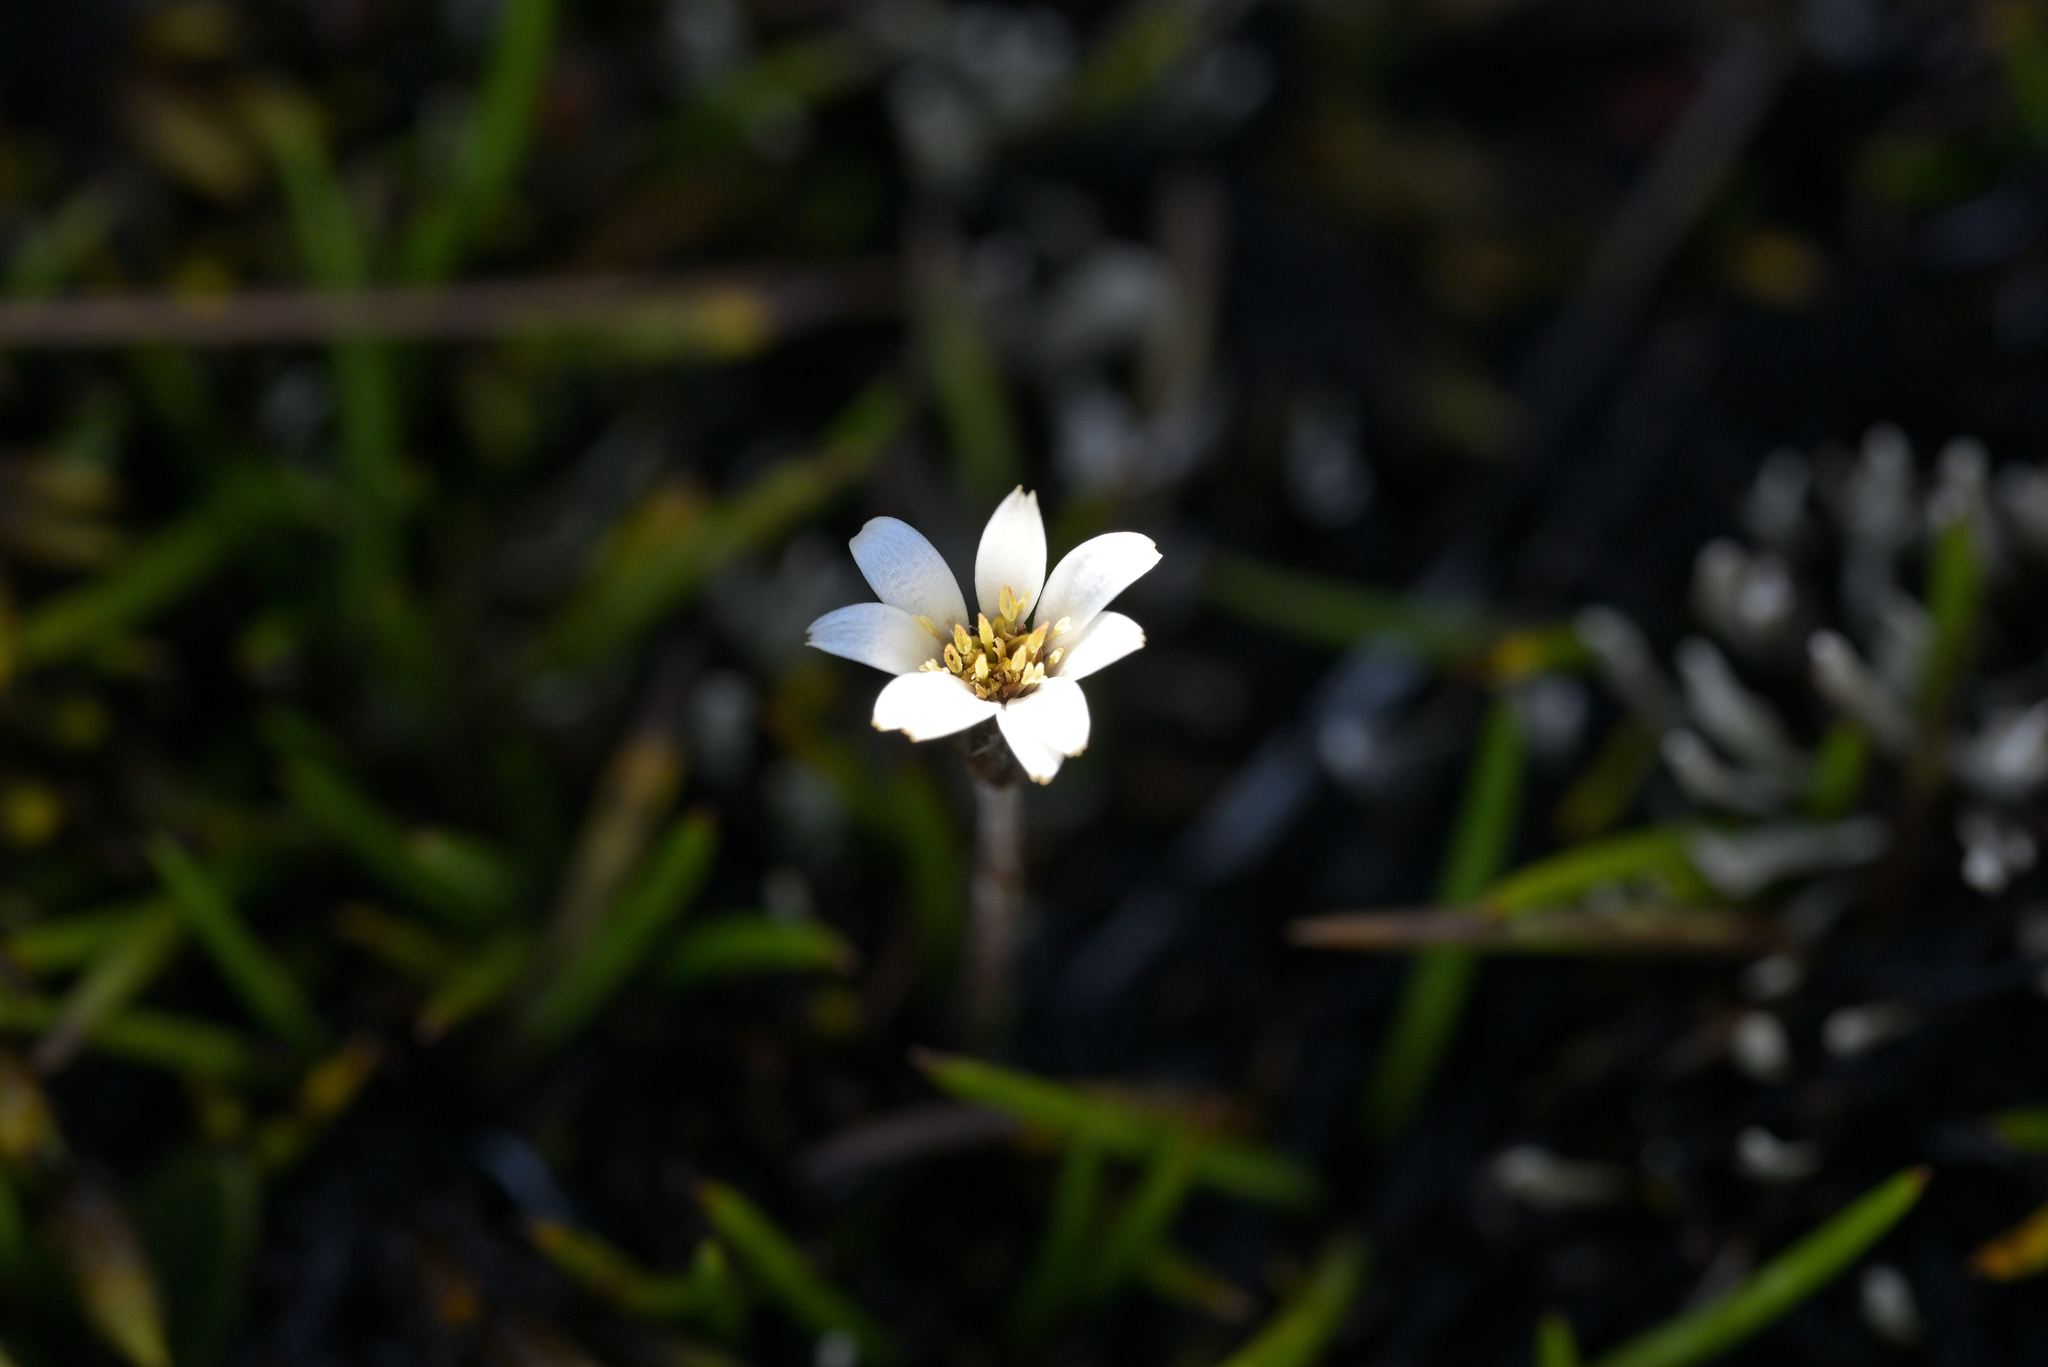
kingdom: Plantae
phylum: Tracheophyta
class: Magnoliopsida
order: Asterales
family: Asteraceae
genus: Celmisia
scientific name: Celmisia alpina
